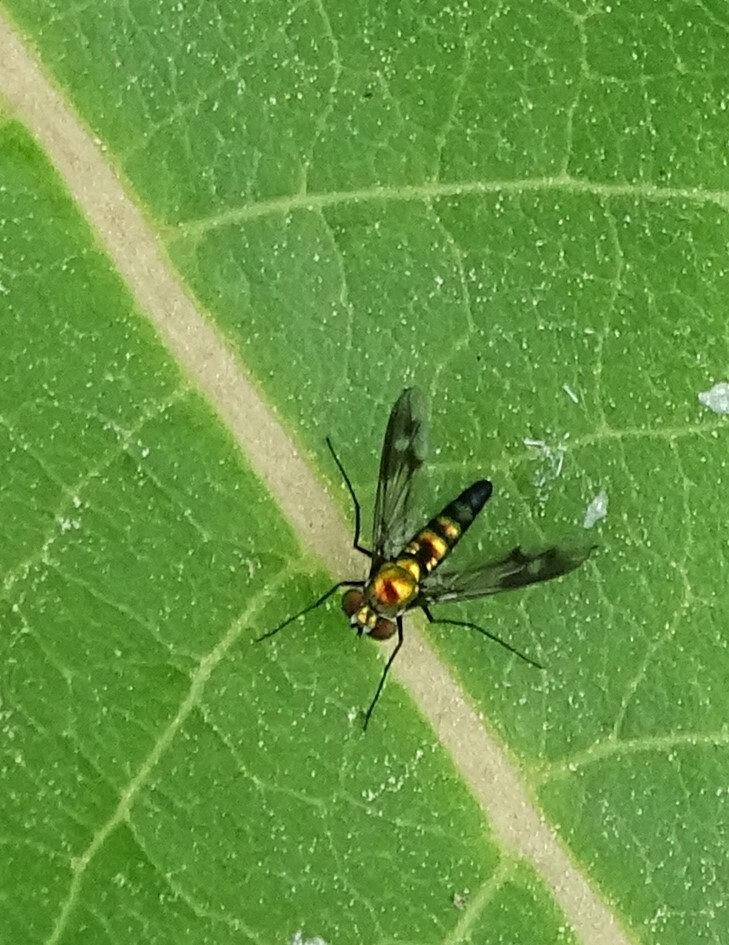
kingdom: Animalia
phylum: Arthropoda
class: Insecta
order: Diptera
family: Dolichopodidae
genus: Condylostylus
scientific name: Condylostylus patibulatus
